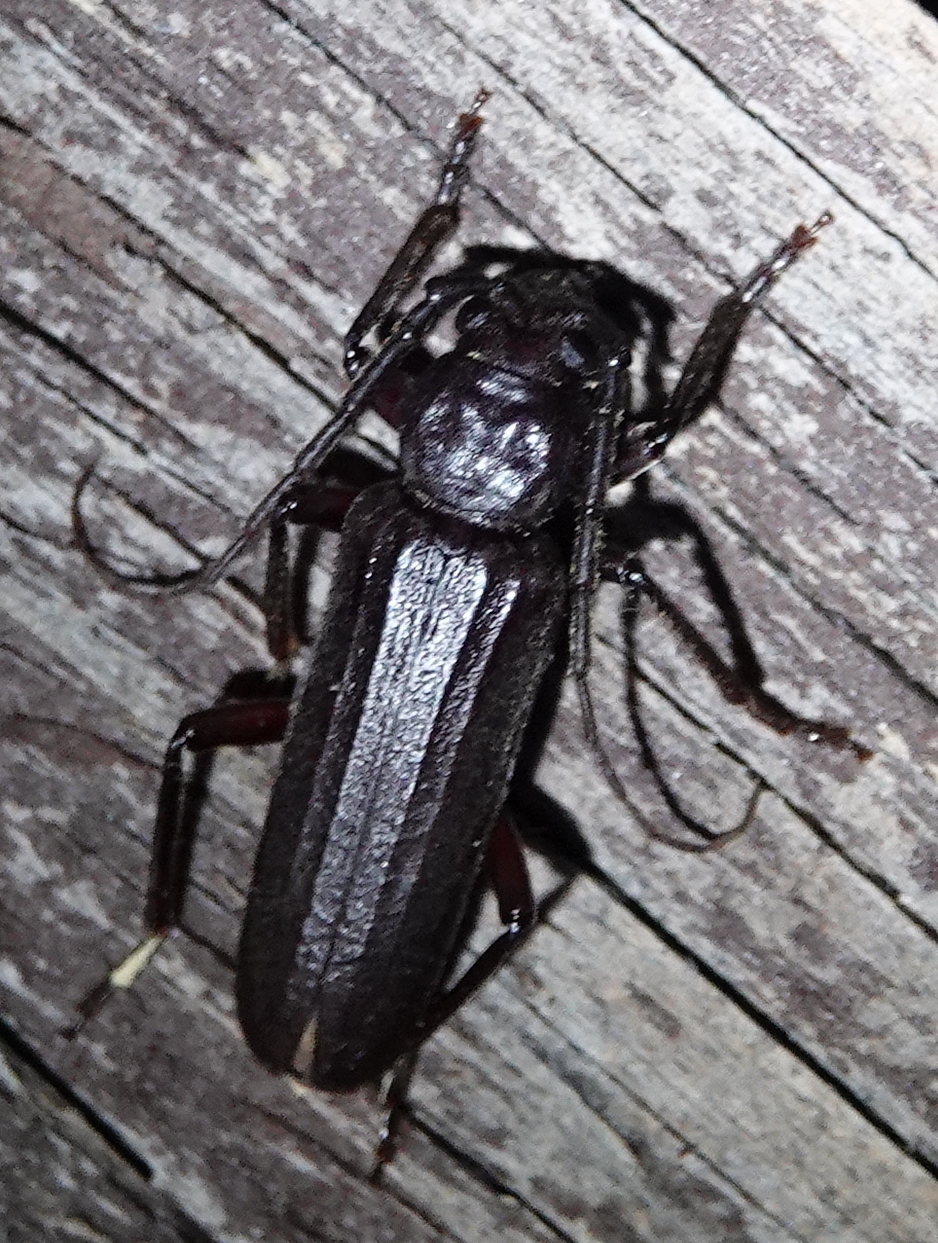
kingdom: Animalia
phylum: Arthropoda
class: Insecta
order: Coleoptera
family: Cerambycidae
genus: Arhopalus
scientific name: Arhopalus rusticus
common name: Rust pine borer
